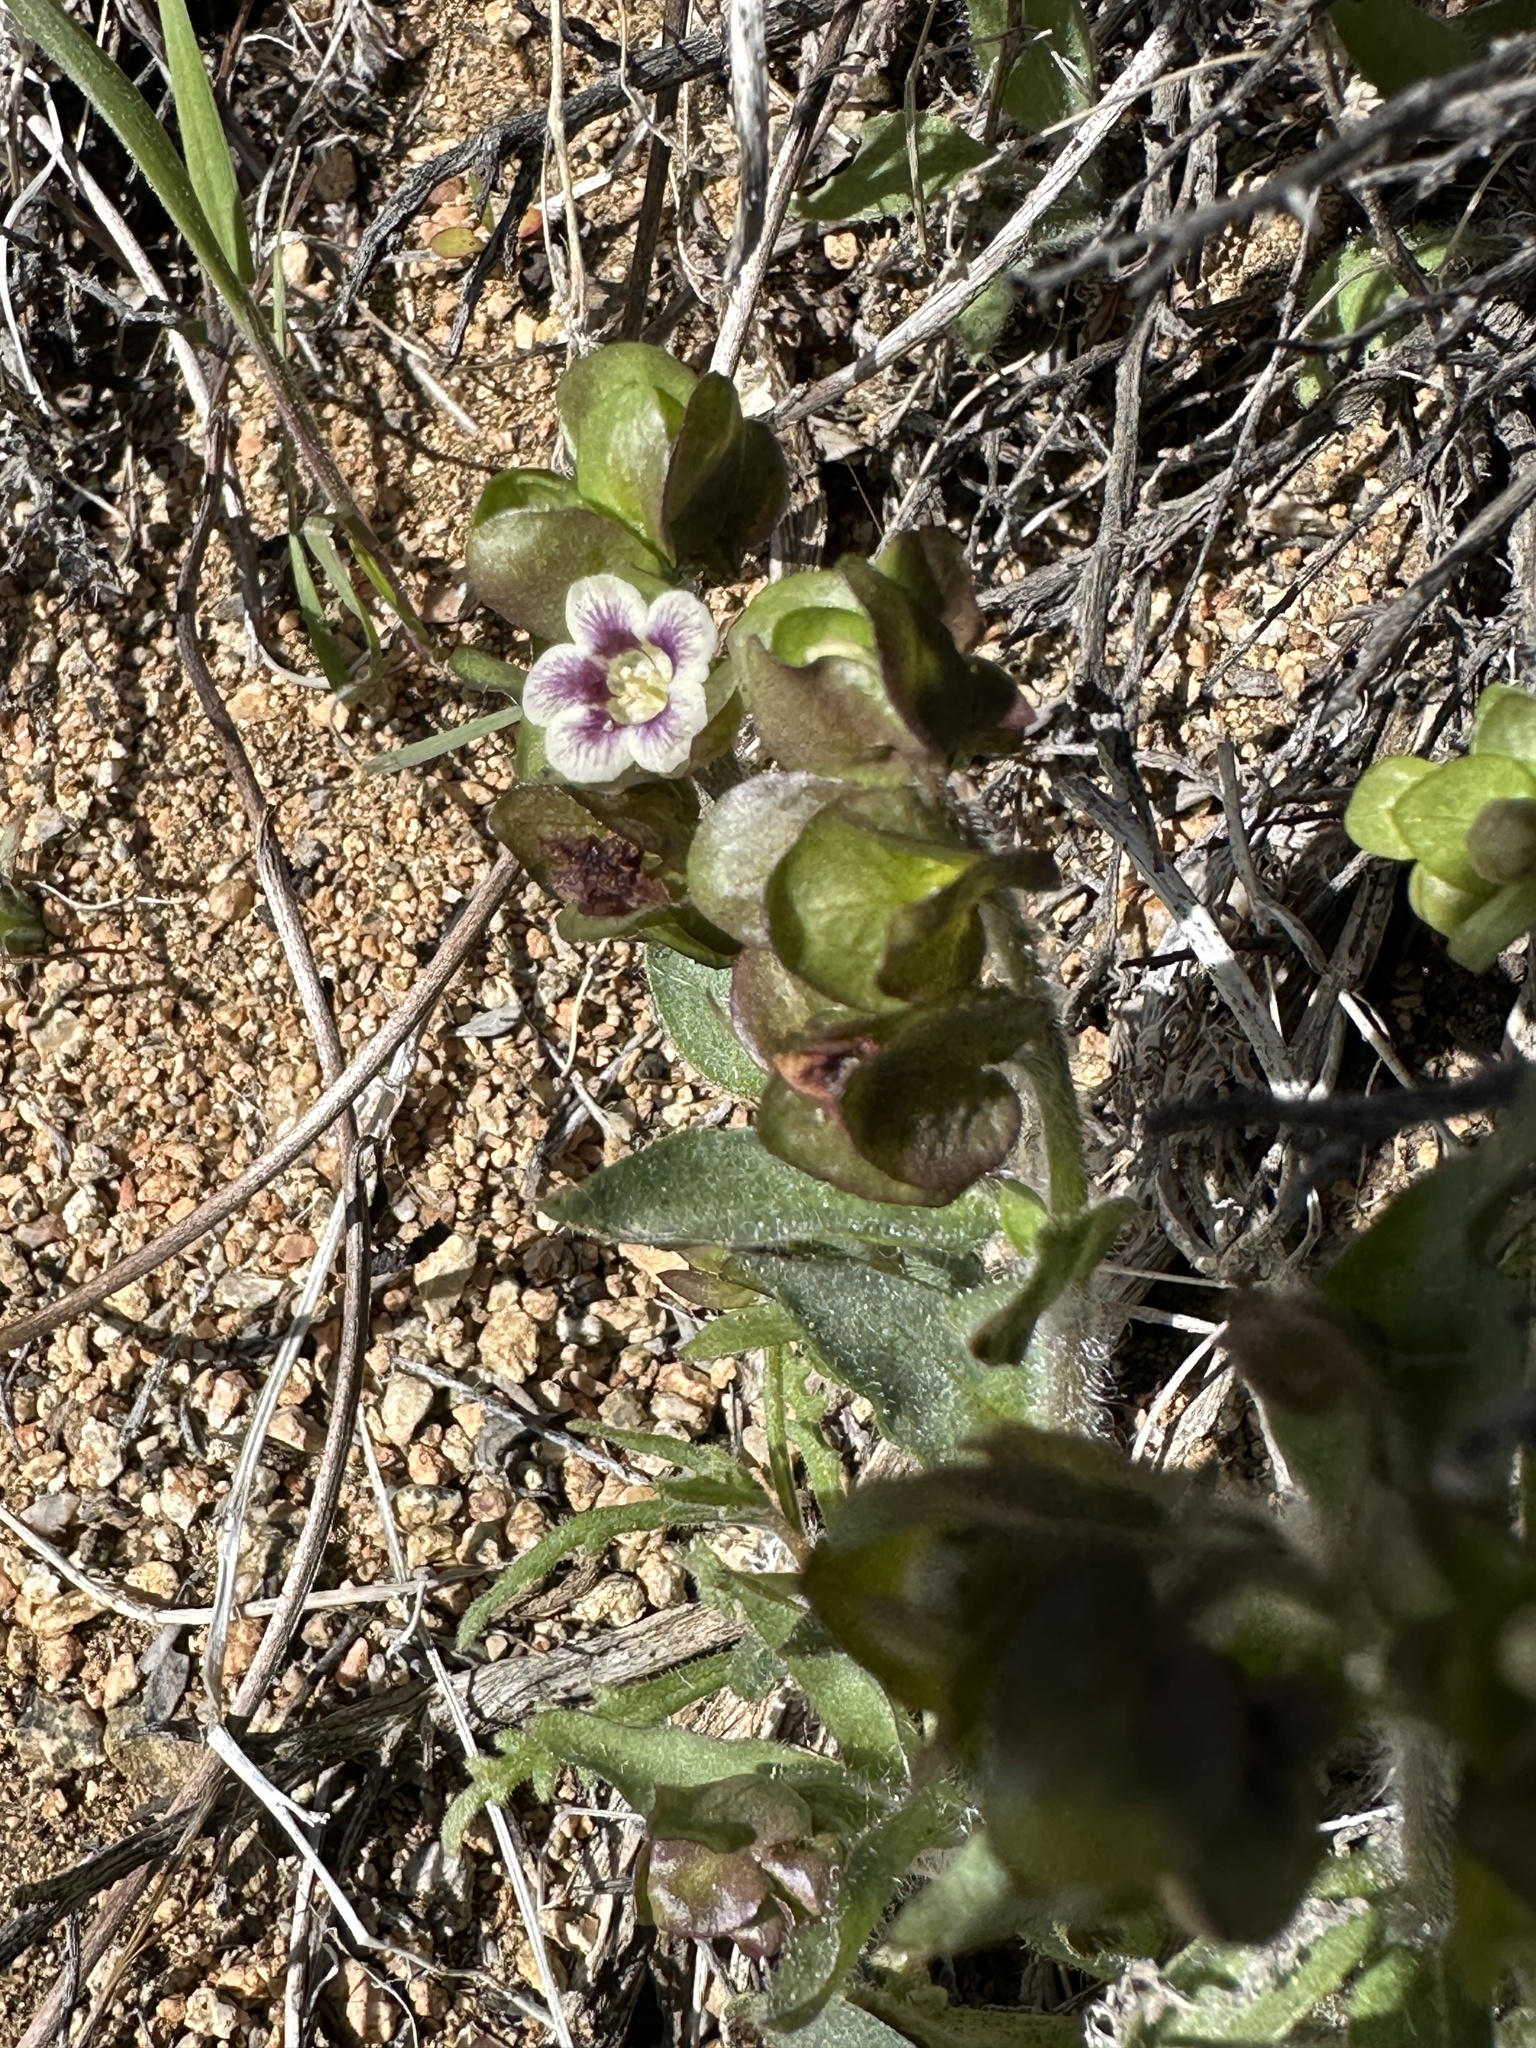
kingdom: Plantae
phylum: Tracheophyta
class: Magnoliopsida
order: Boraginales
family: Hydrophyllaceae
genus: Tricardia
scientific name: Tricardia watsonii
